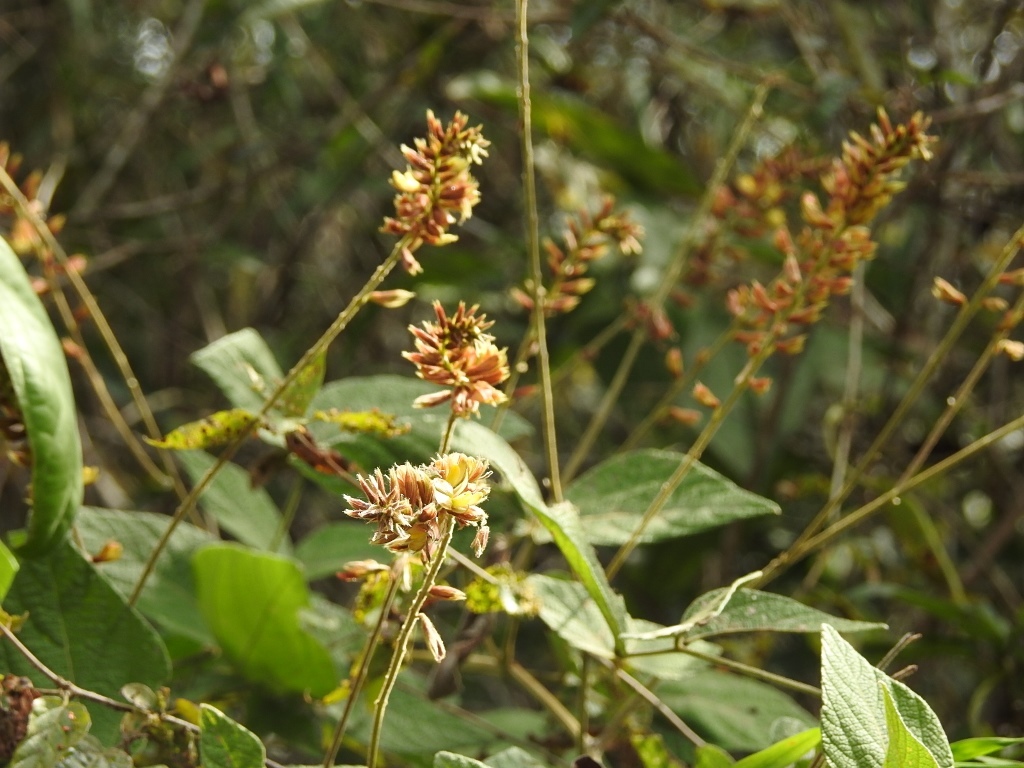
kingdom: Plantae
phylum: Tracheophyta
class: Magnoliopsida
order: Fabales
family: Fabaceae
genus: Rhynchosia
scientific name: Rhynchosia longeracemosa
